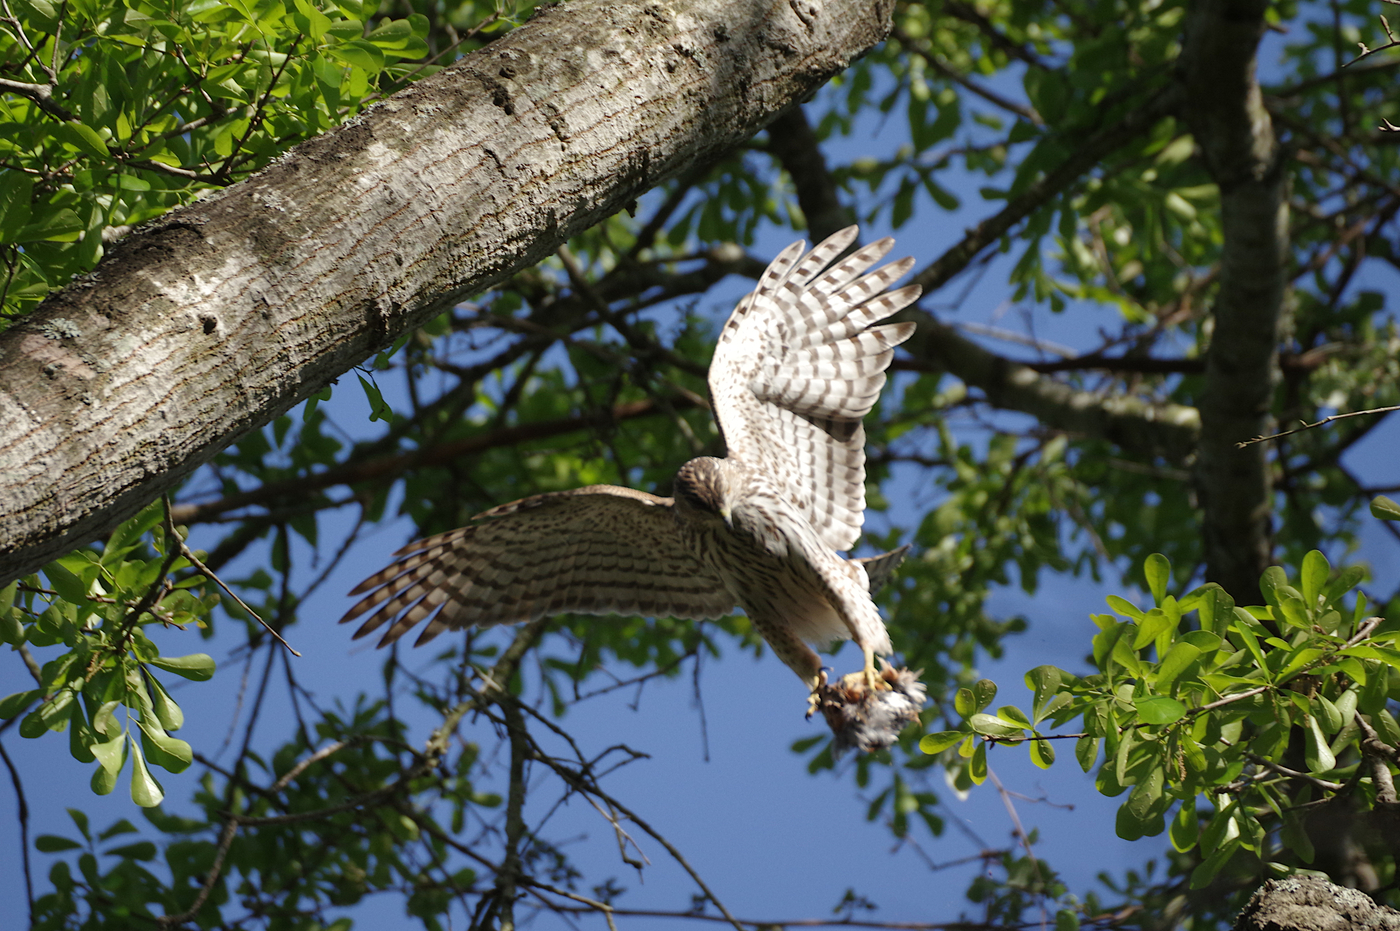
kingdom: Animalia
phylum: Chordata
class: Aves
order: Accipitriformes
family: Accipitridae
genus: Accipiter
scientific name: Accipiter cooperii
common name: Cooper's hawk
